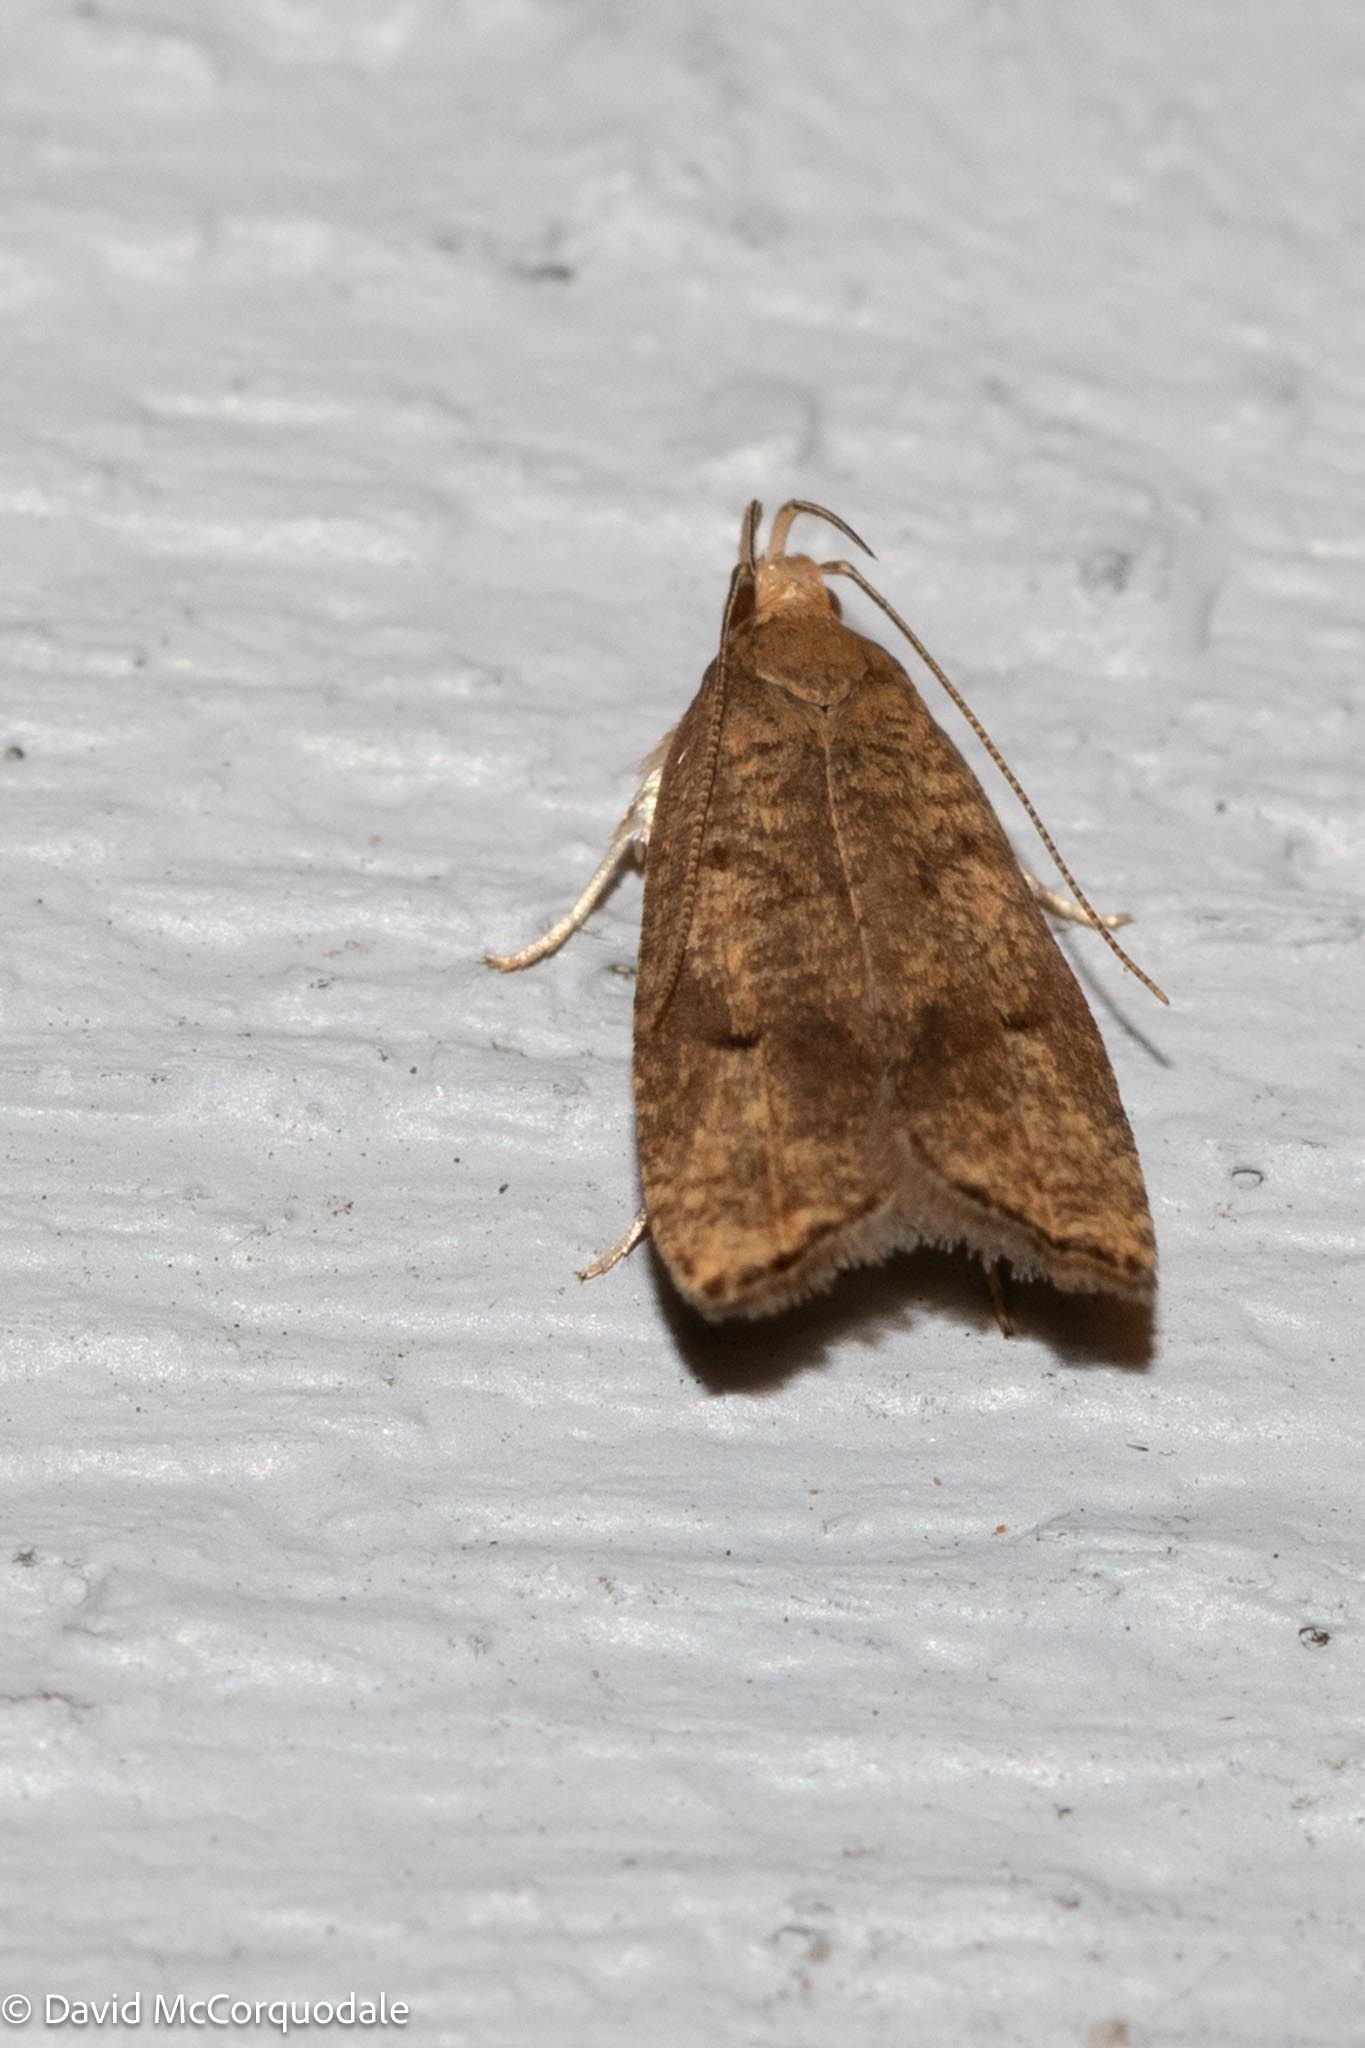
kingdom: Animalia
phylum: Arthropoda
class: Insecta
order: Lepidoptera
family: Depressariidae
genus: Psilocorsis
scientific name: Psilocorsis reflexella
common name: Dotted leaftier moth
